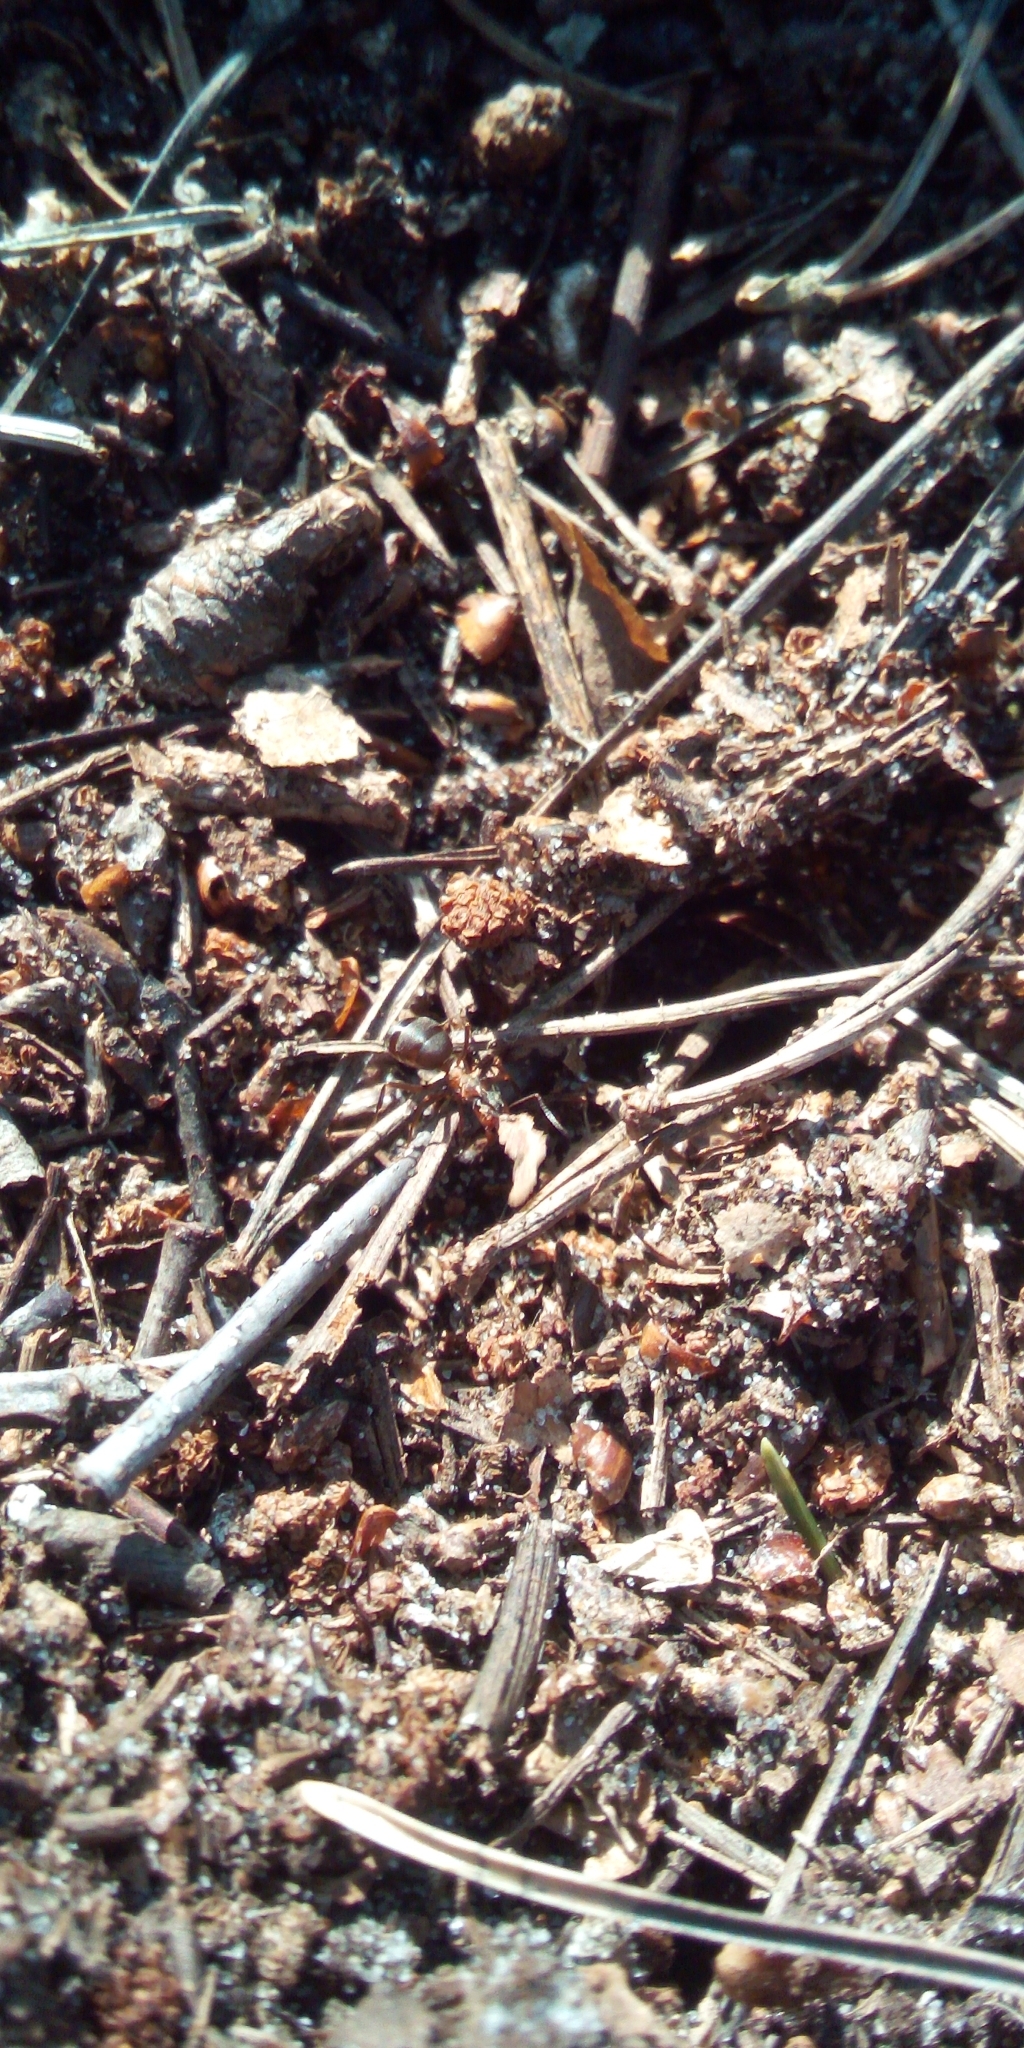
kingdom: Animalia
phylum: Arthropoda
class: Insecta
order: Hymenoptera
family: Formicidae
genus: Formica
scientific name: Formica
